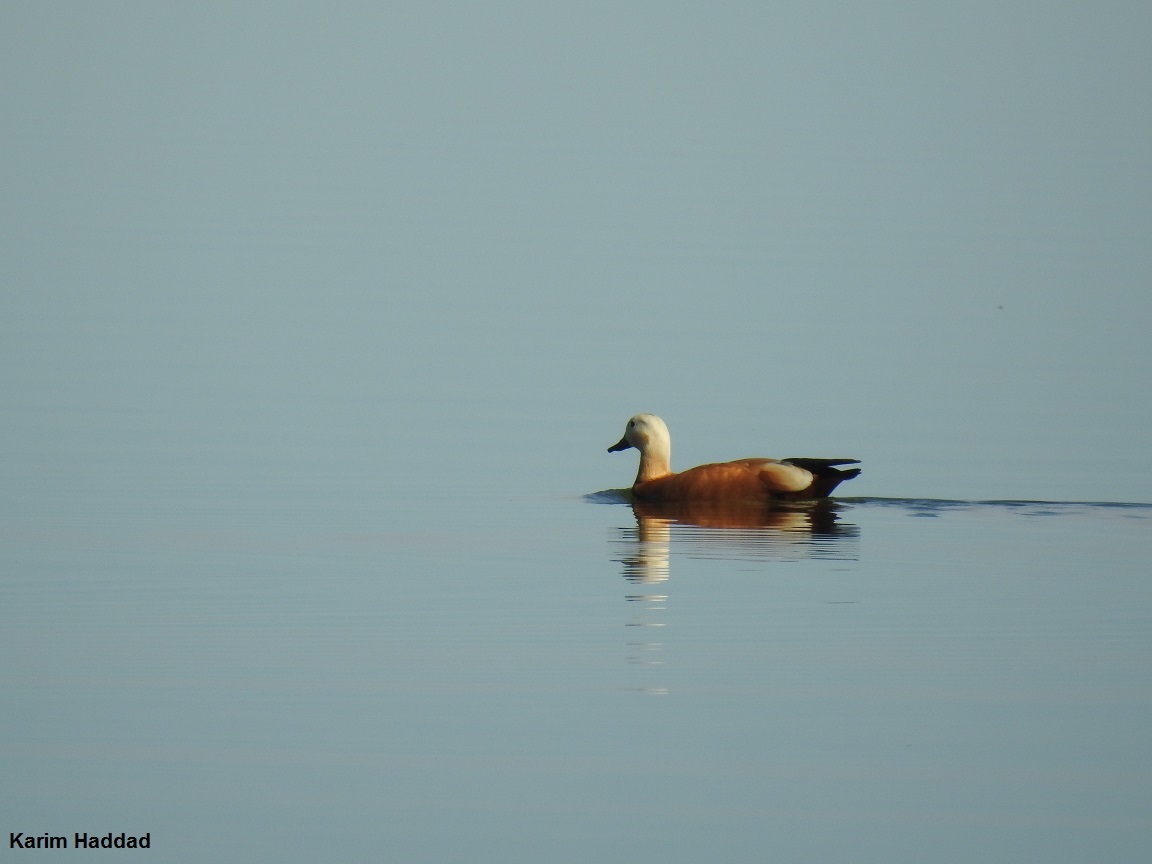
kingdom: Animalia
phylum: Chordata
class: Aves
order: Anseriformes
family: Anatidae
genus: Tadorna
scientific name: Tadorna ferruginea
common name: Ruddy shelduck
